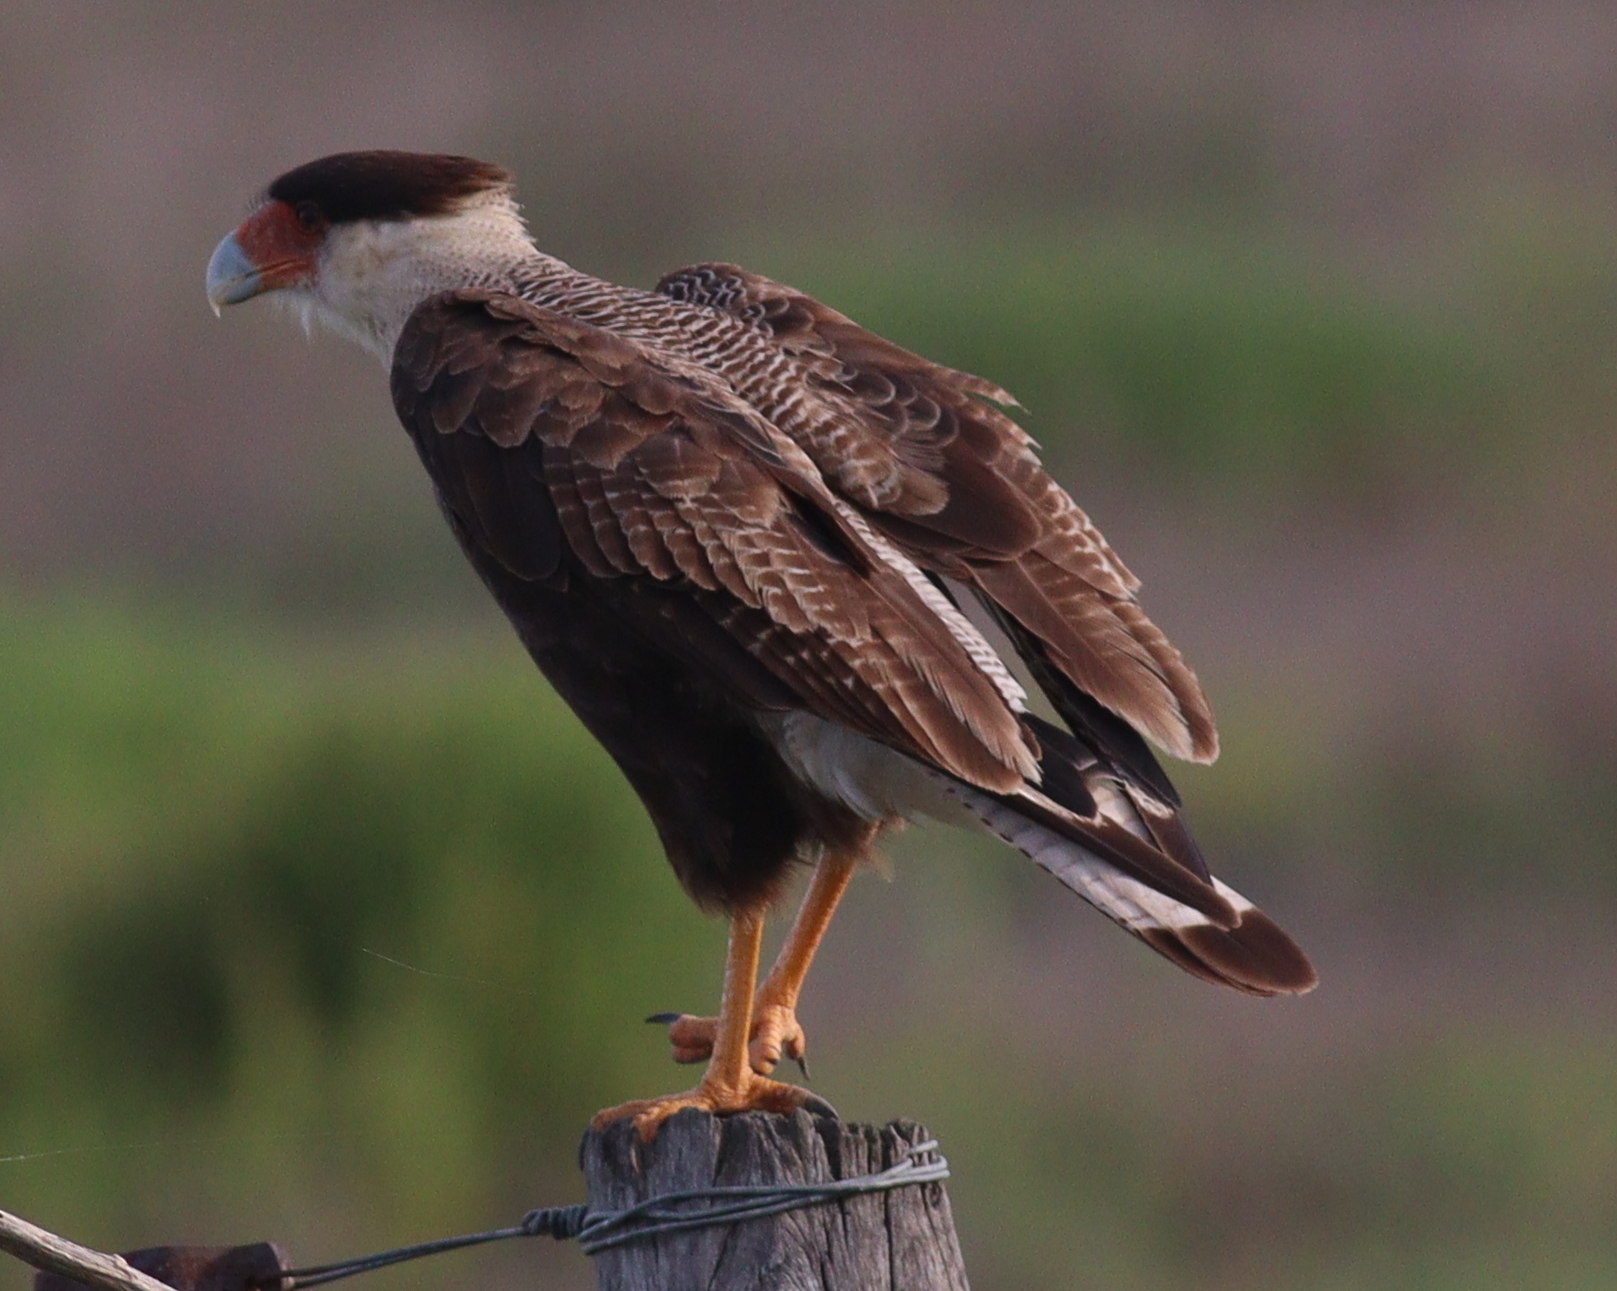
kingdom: Animalia
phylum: Chordata
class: Aves
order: Falconiformes
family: Falconidae
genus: Caracara
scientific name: Caracara plancus
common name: Southern caracara
